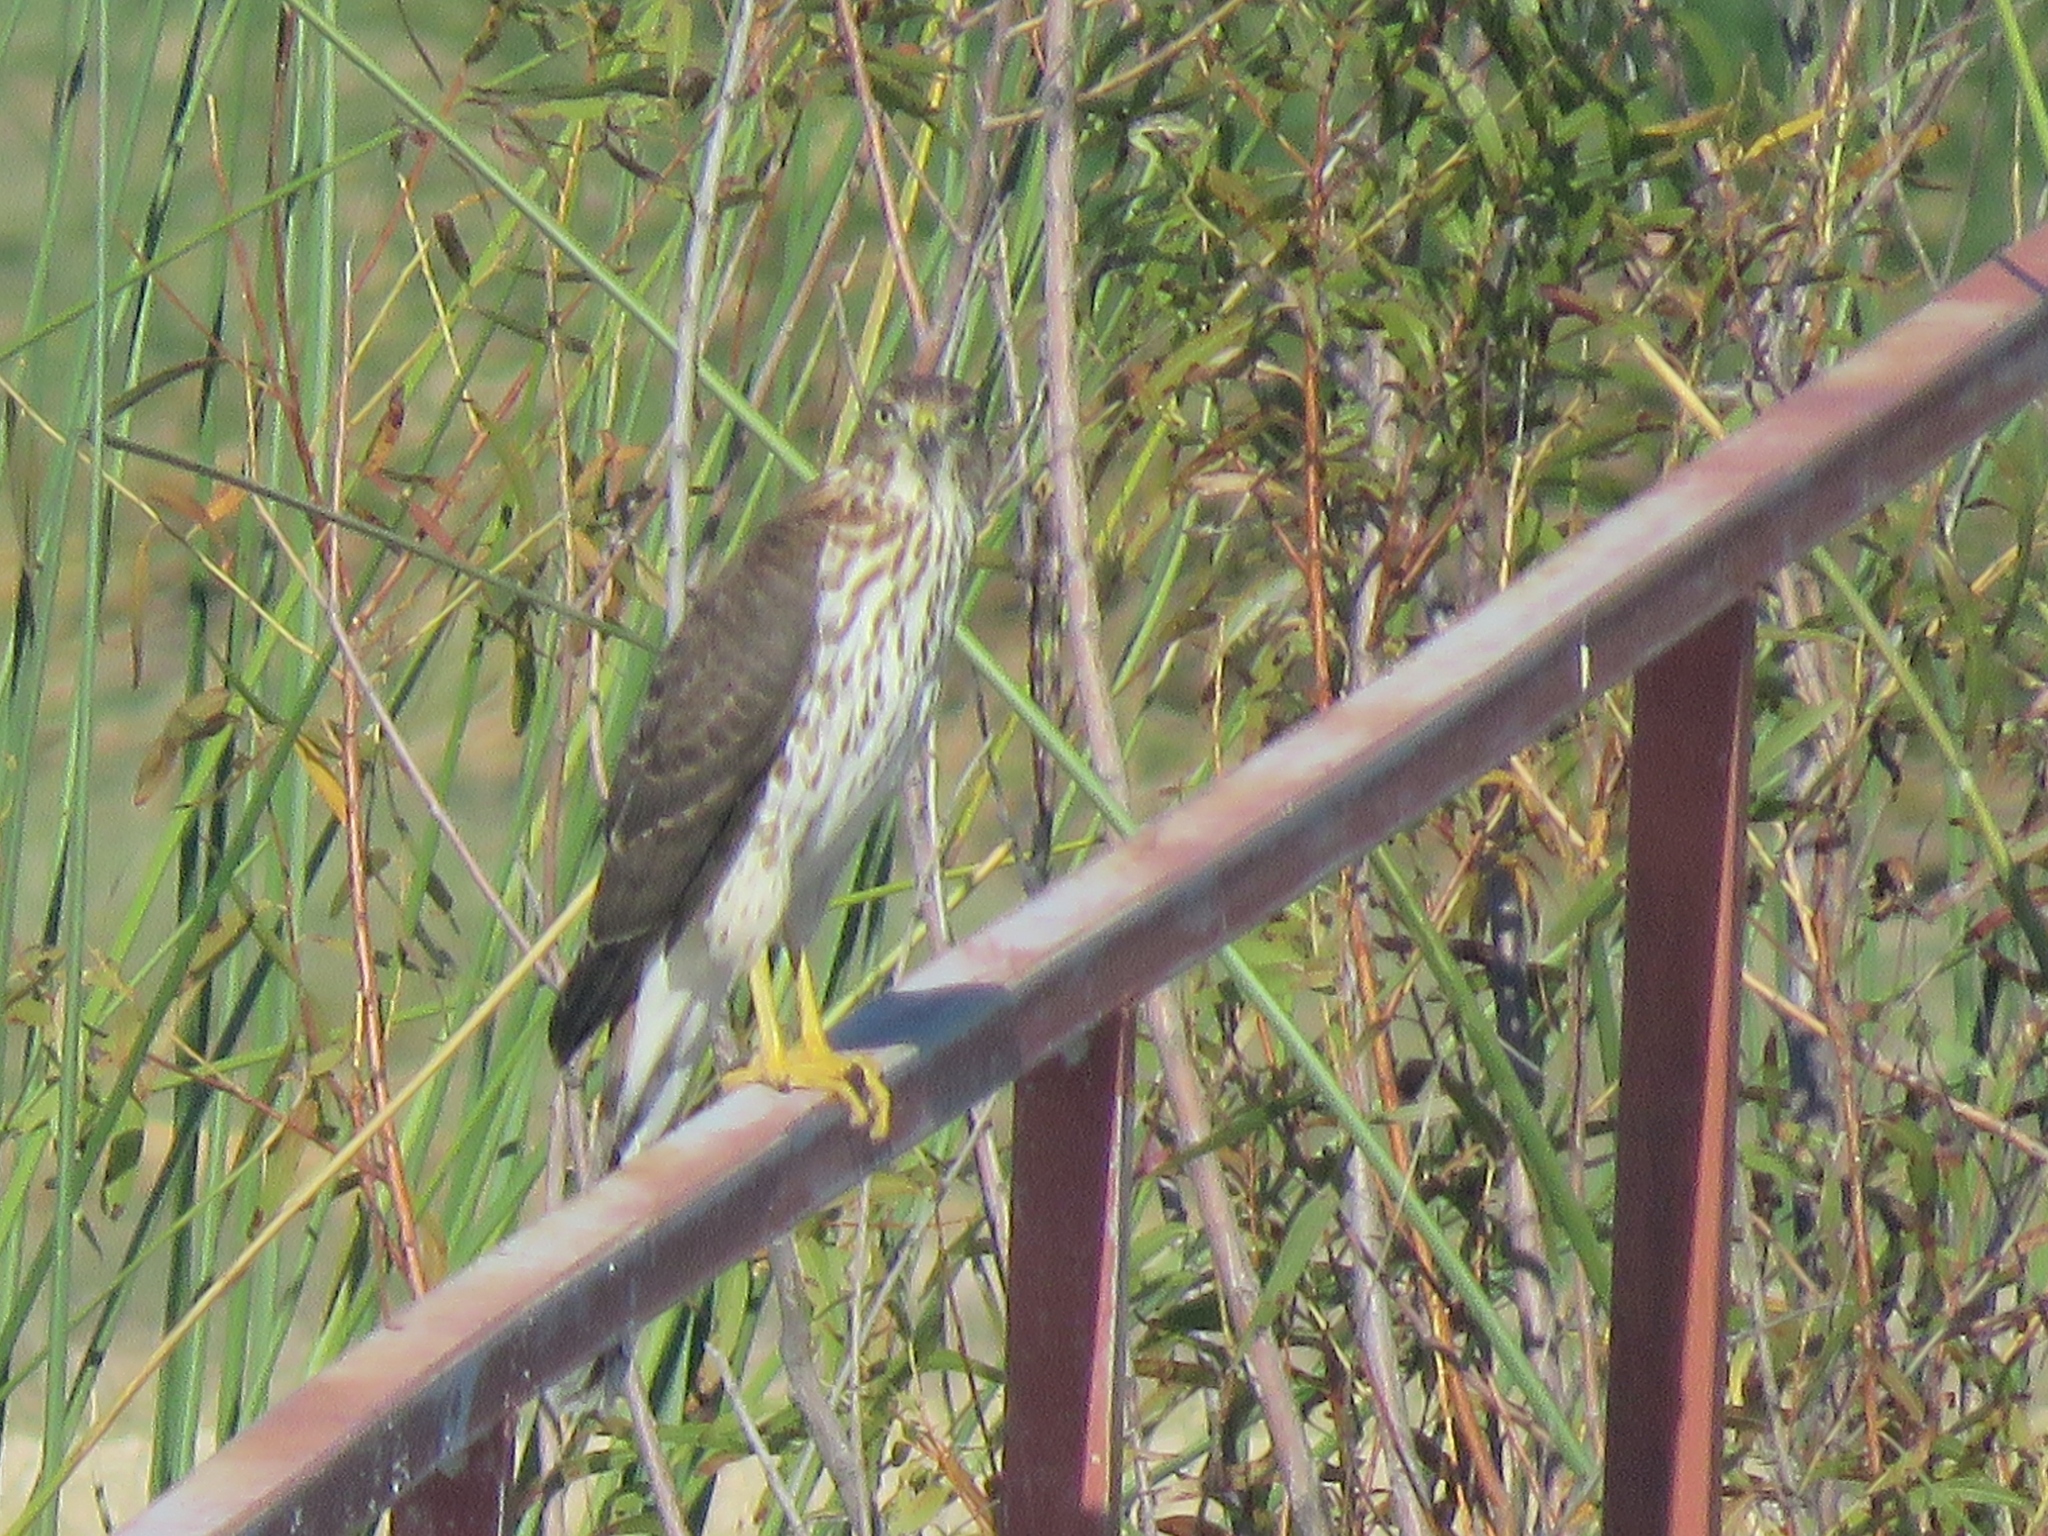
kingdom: Animalia
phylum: Chordata
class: Aves
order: Accipitriformes
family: Accipitridae
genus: Accipiter
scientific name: Accipiter cooperii
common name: Cooper's hawk
